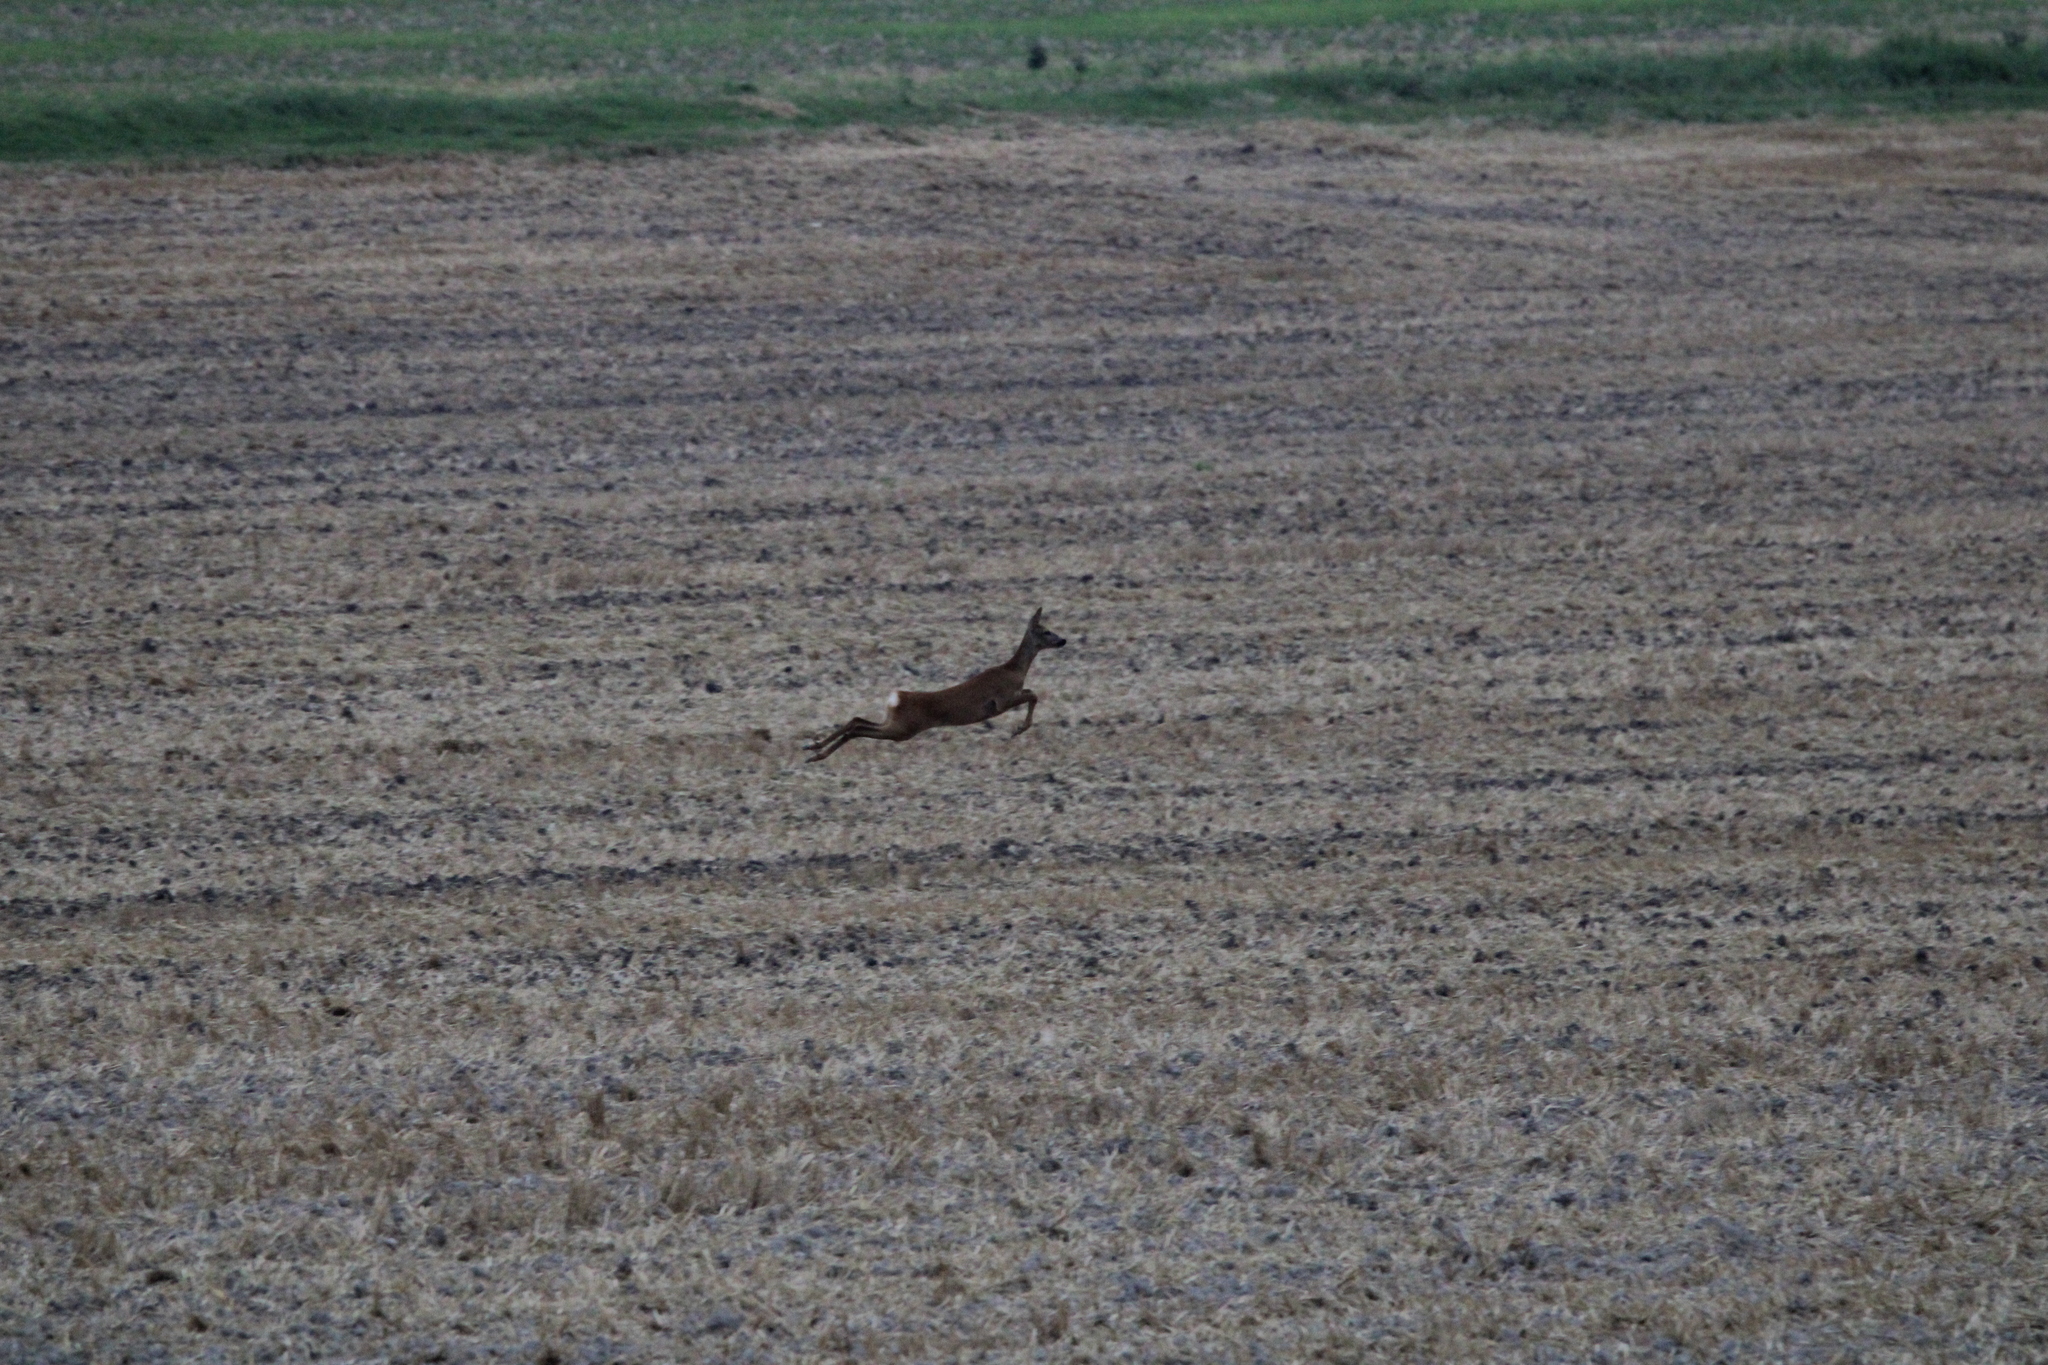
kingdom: Animalia
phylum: Chordata
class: Mammalia
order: Artiodactyla
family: Cervidae
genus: Capreolus
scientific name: Capreolus capreolus
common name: Western roe deer
